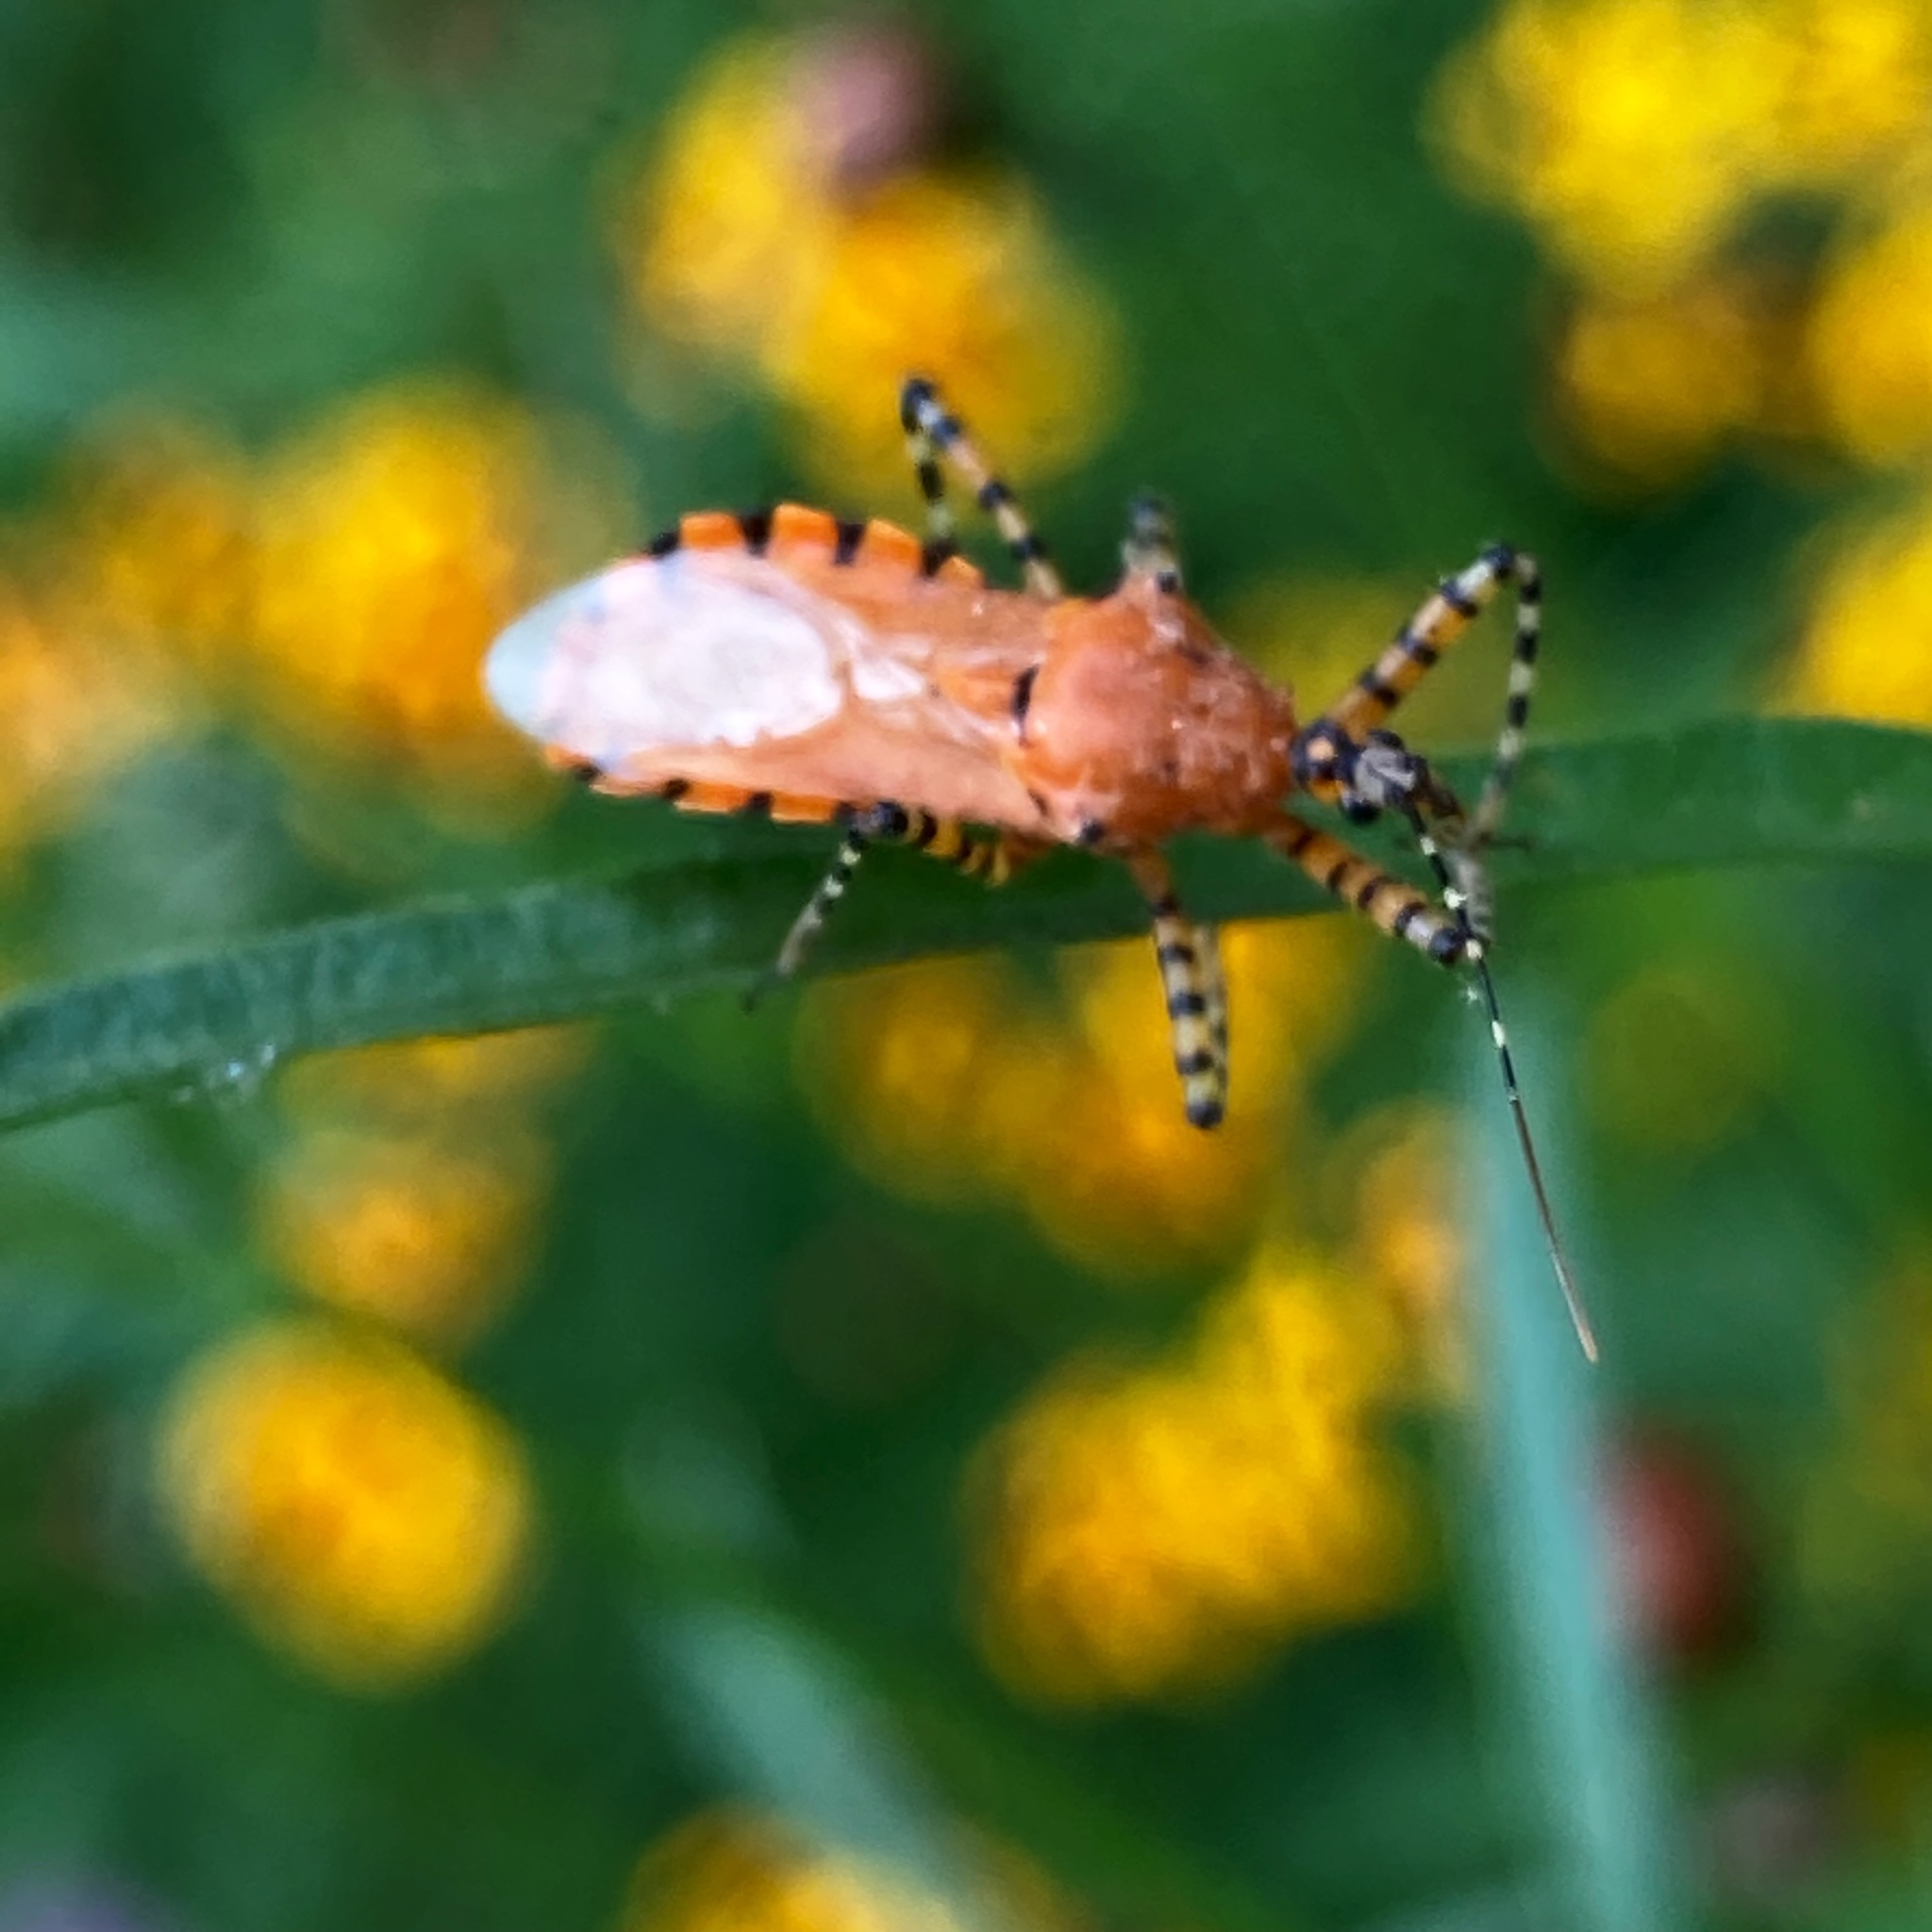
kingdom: Animalia
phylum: Arthropoda
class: Insecta
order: Hemiptera
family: Reduviidae
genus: Pselliopus
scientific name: Pselliopus barberi
